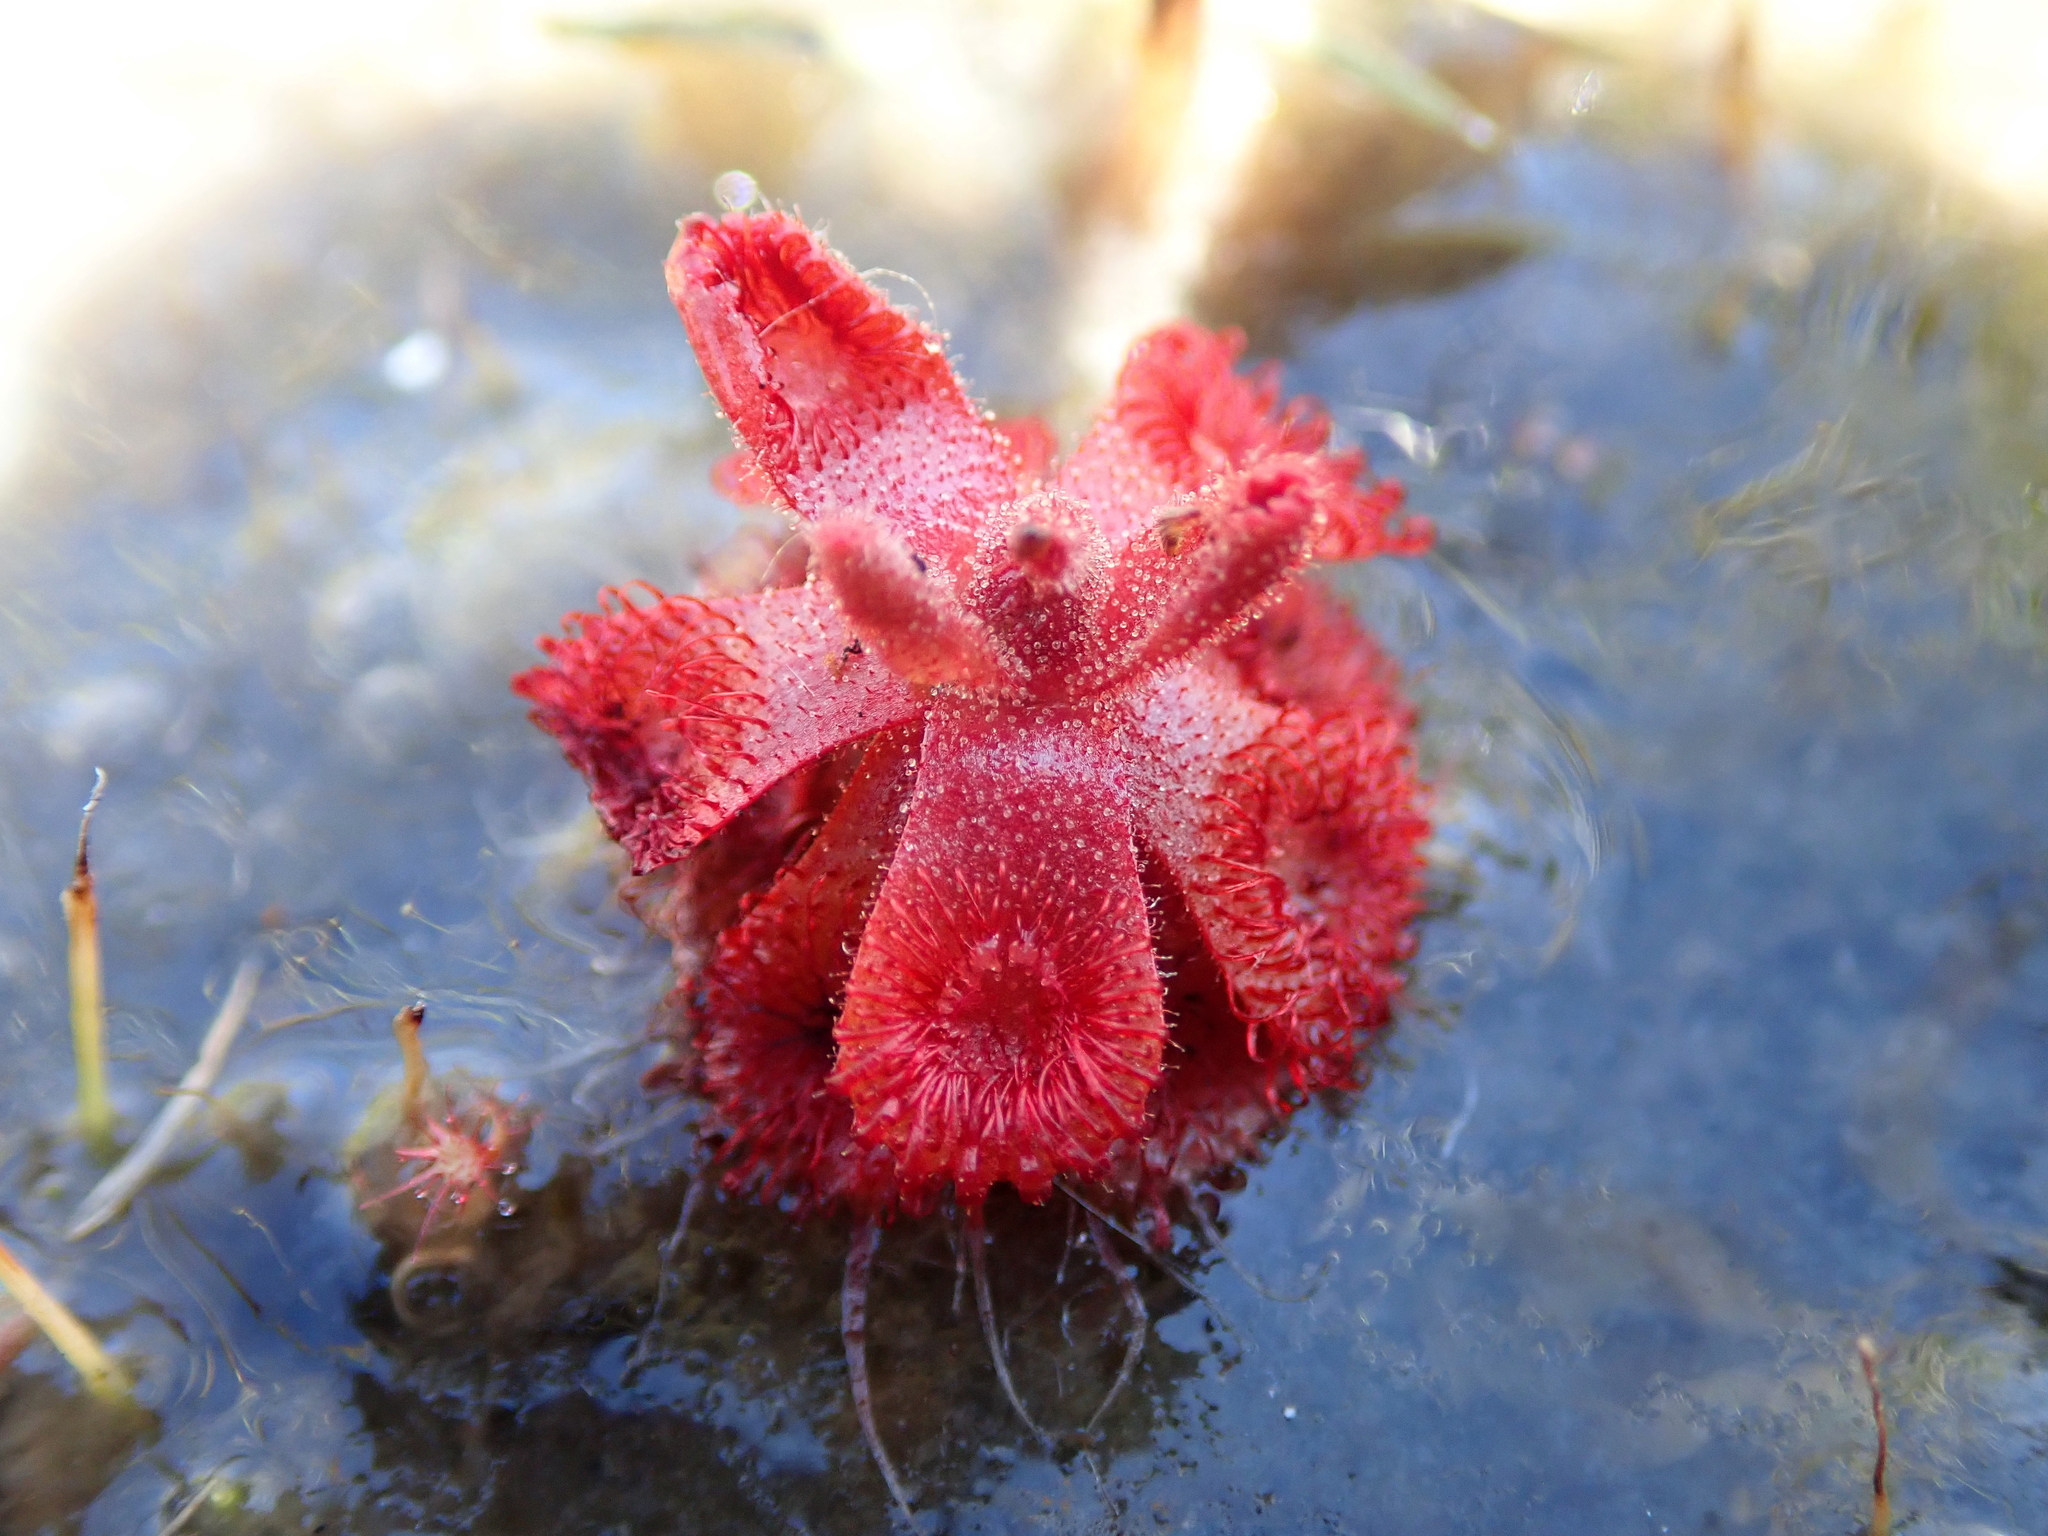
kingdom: Plantae
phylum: Tracheophyta
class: Magnoliopsida
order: Caryophyllales
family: Droseraceae
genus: Drosera
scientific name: Drosera sessilifolia
